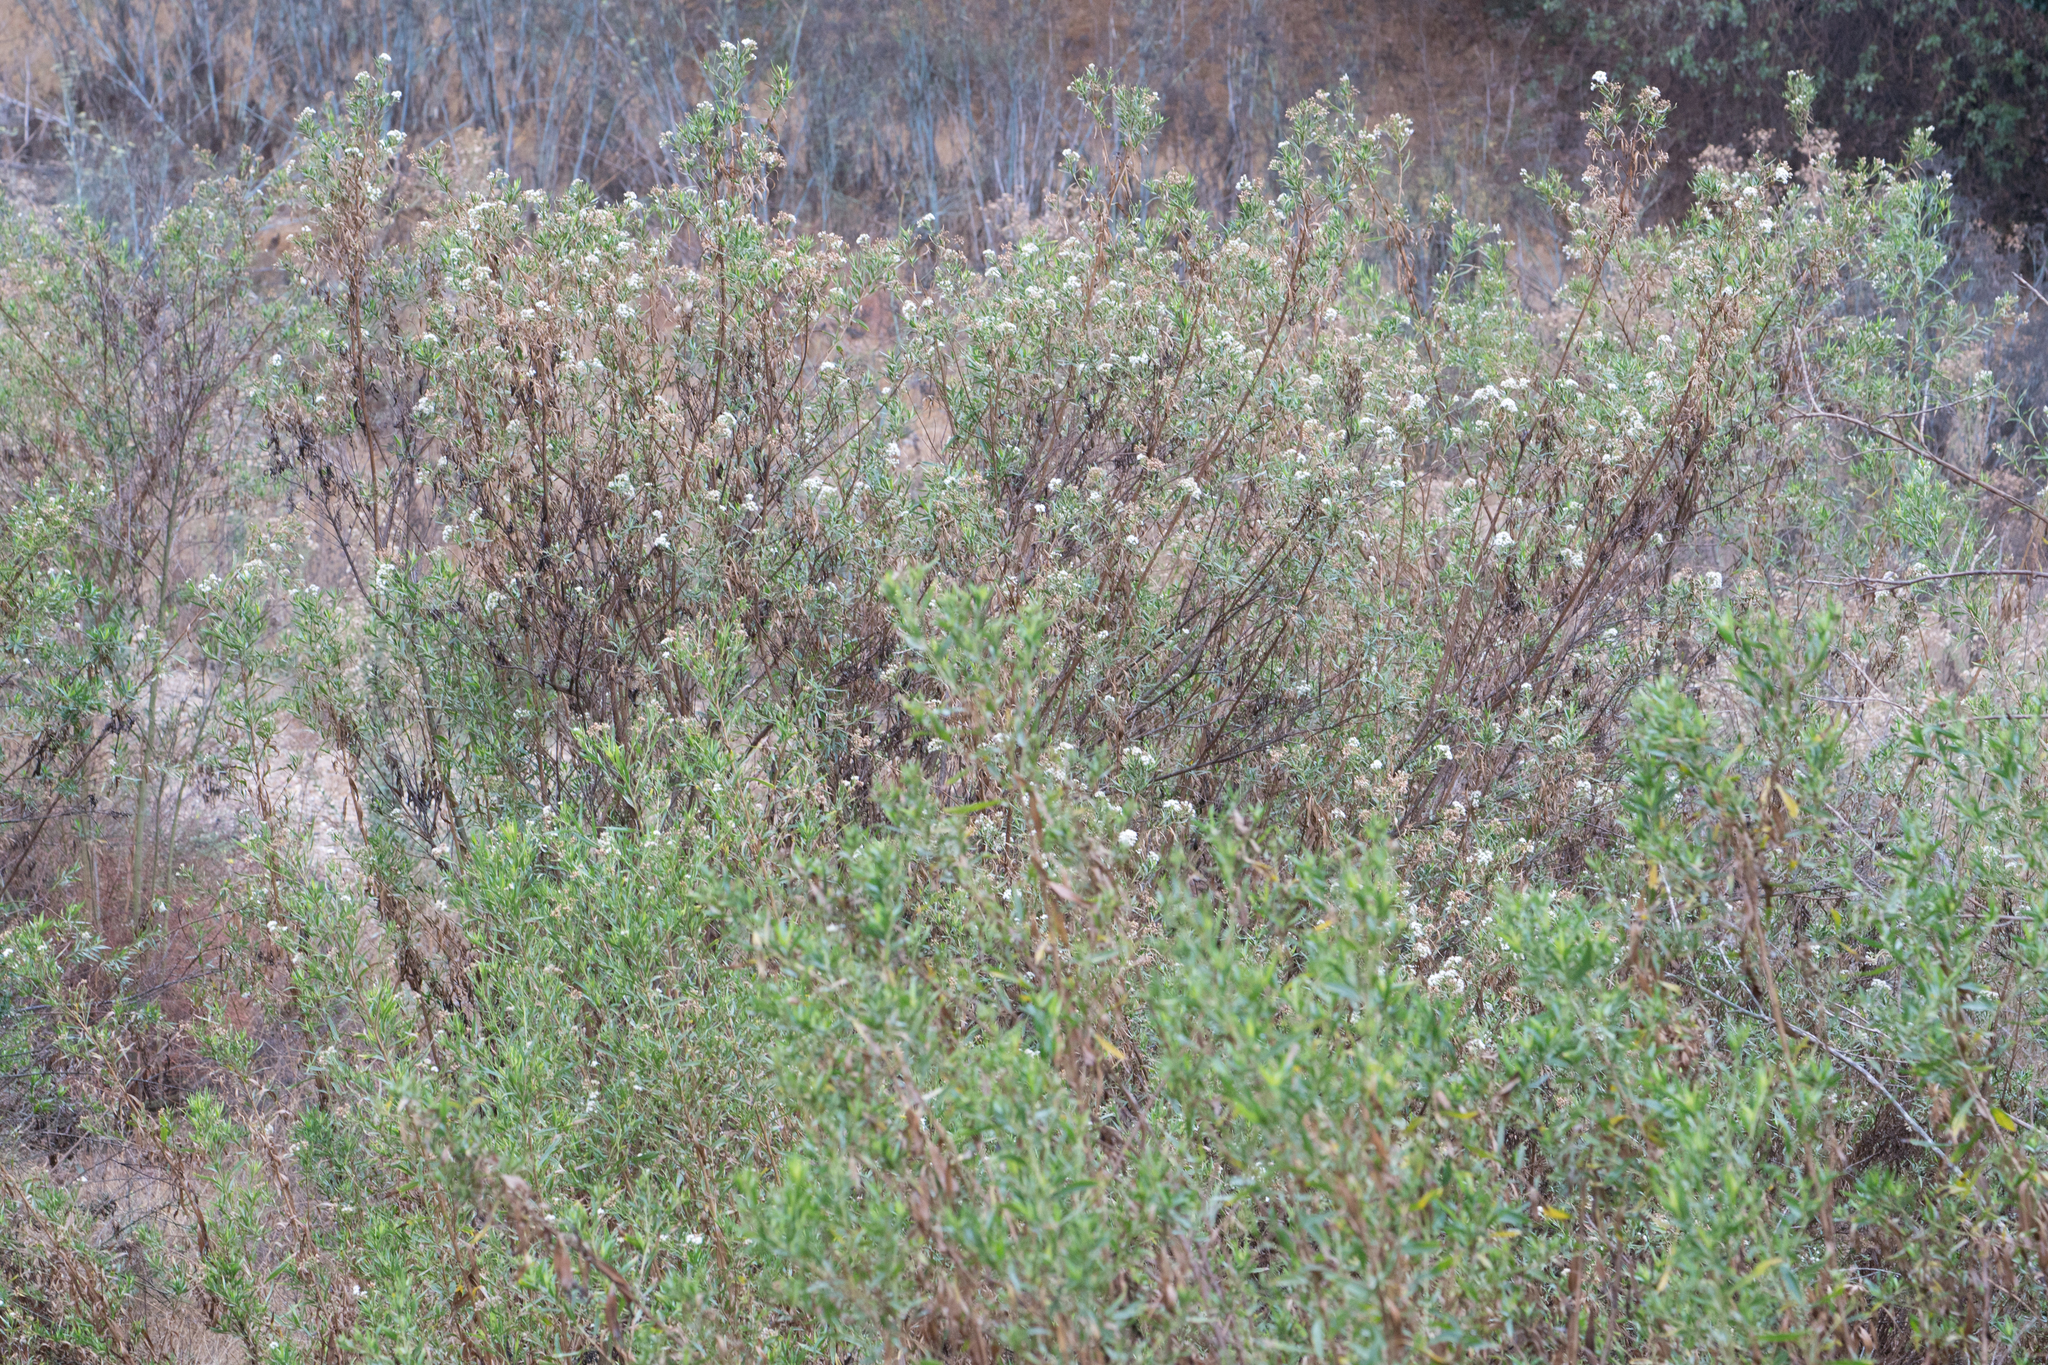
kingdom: Plantae
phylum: Tracheophyta
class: Magnoliopsida
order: Asterales
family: Asteraceae
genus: Baccharis
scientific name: Baccharis salicifolia
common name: Sticky baccharis
